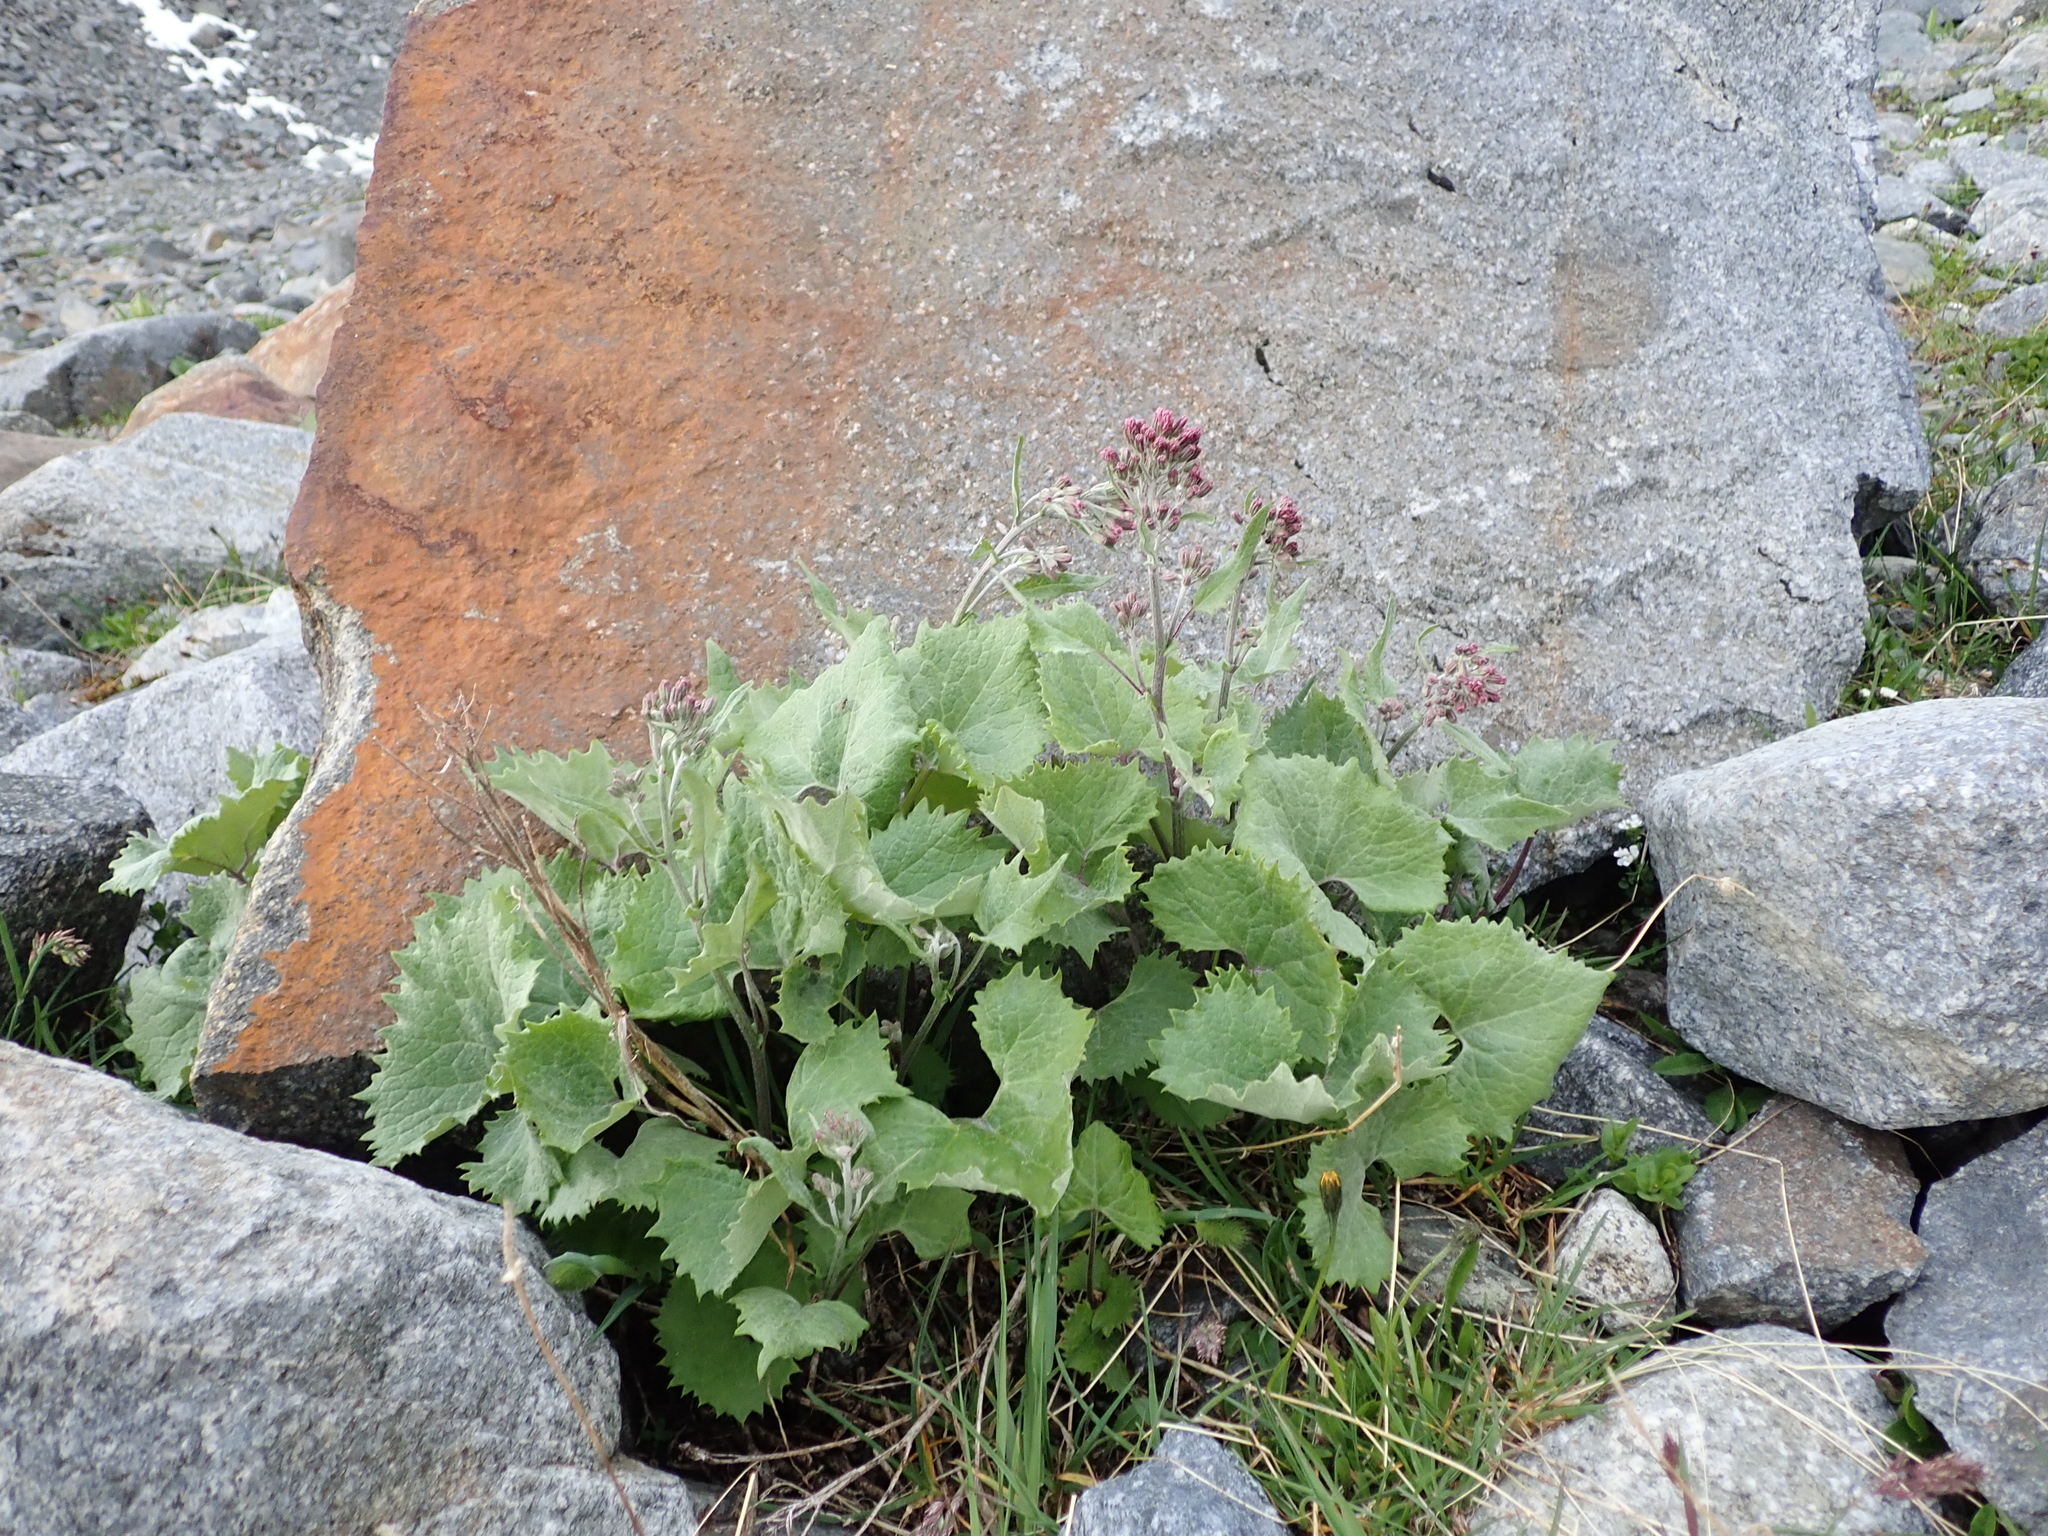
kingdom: Plantae
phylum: Tracheophyta
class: Magnoliopsida
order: Asterales
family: Asteraceae
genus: Adenostyles
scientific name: Adenostyles leucophylla
